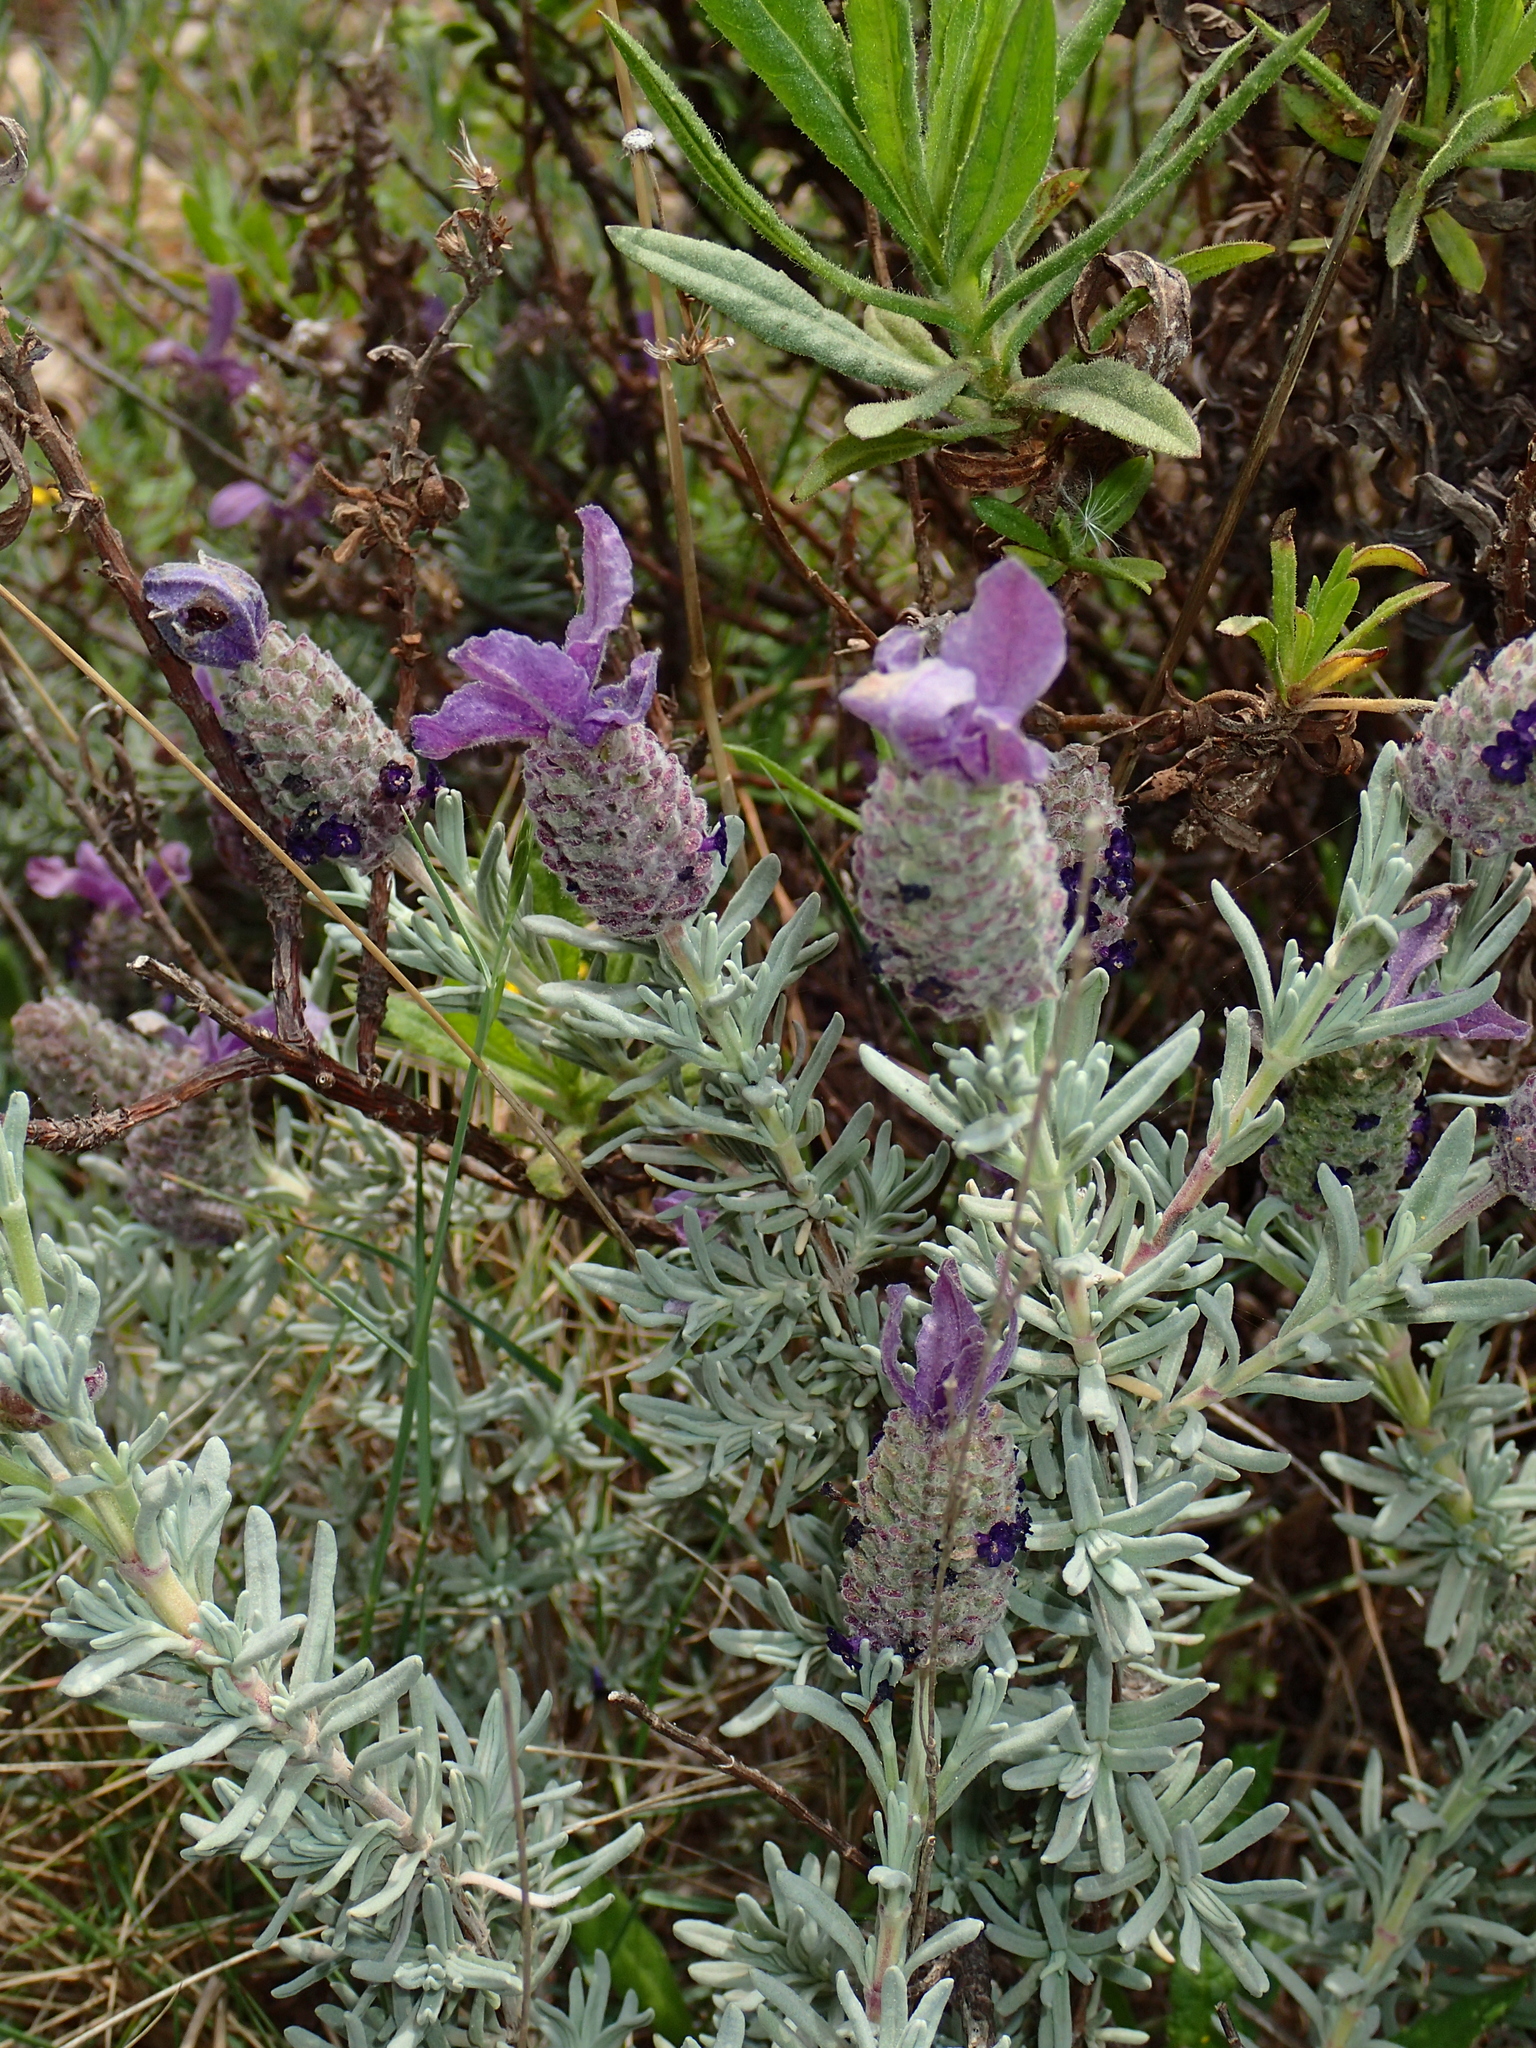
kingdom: Plantae
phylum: Tracheophyta
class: Magnoliopsida
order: Lamiales
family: Lamiaceae
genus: Lavandula
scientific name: Lavandula stoechas
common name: French lavender
